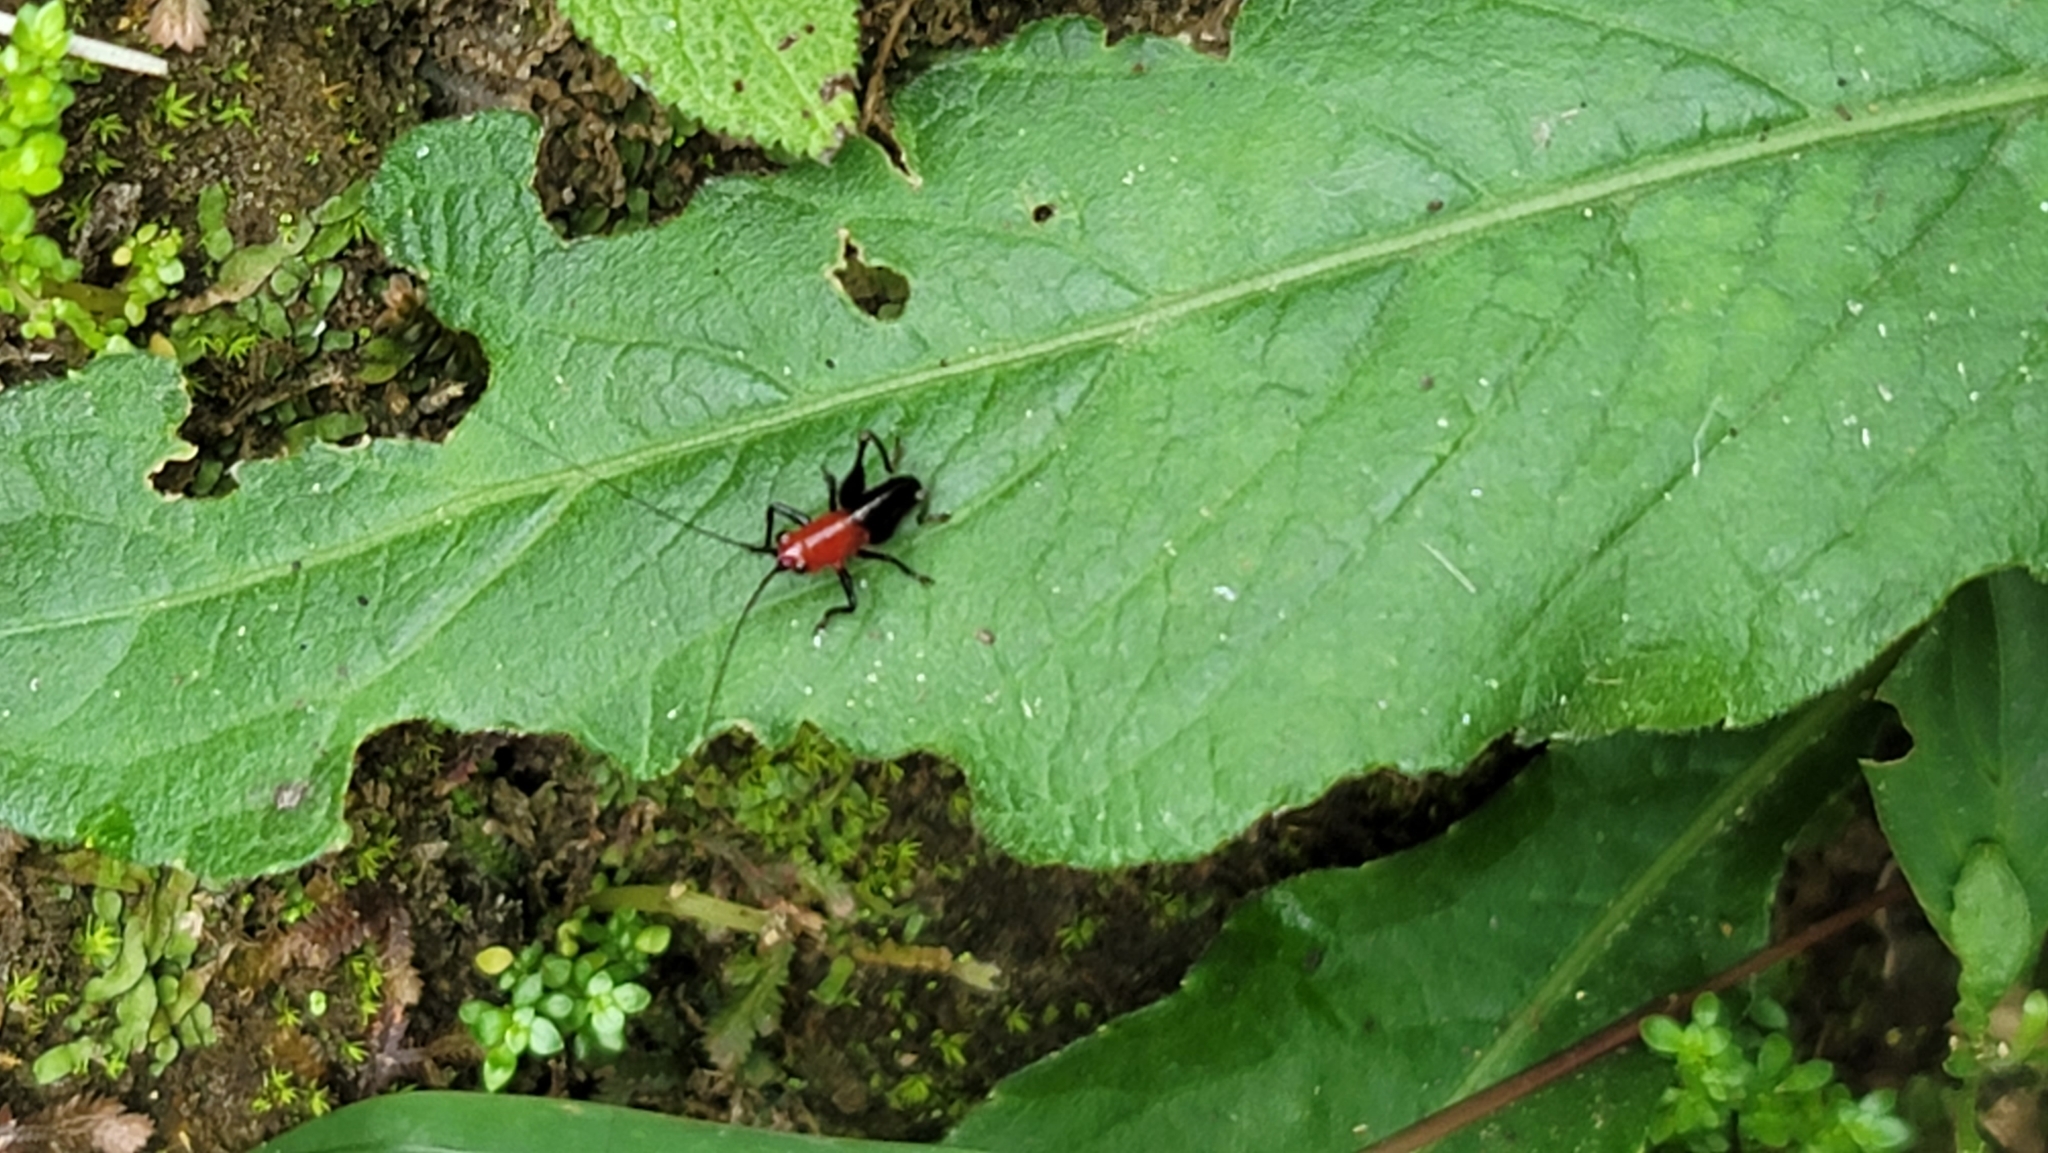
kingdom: Animalia
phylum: Arthropoda
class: Insecta
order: Orthoptera
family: Tettigoniidae
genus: Conocephalus
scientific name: Conocephalus melaenus
